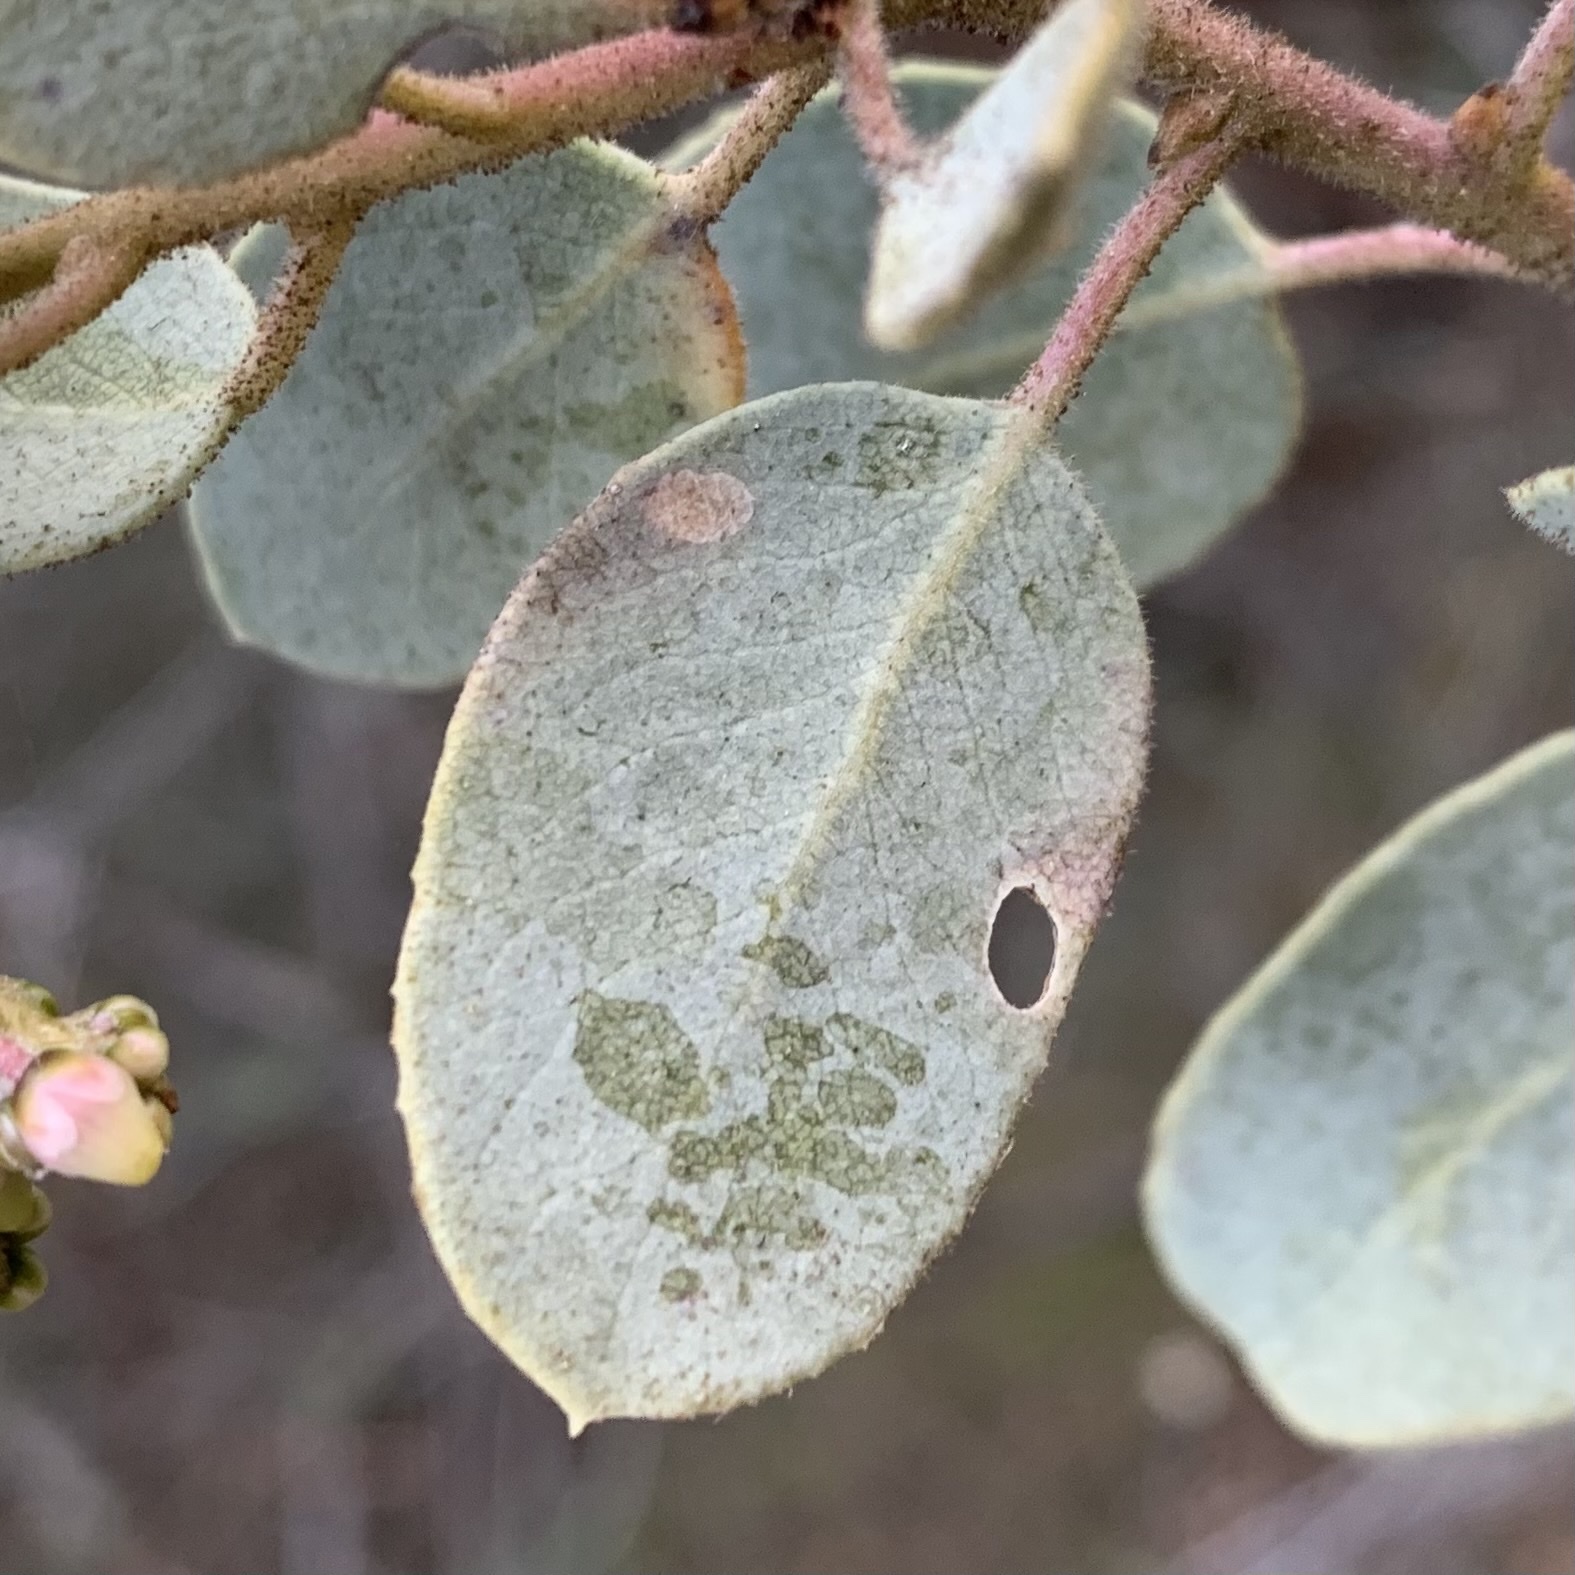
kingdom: Animalia
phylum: Arthropoda
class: Insecta
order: Lepidoptera
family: Heliozelidae
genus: Coptodisca
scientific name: Coptodisca arbutiella
